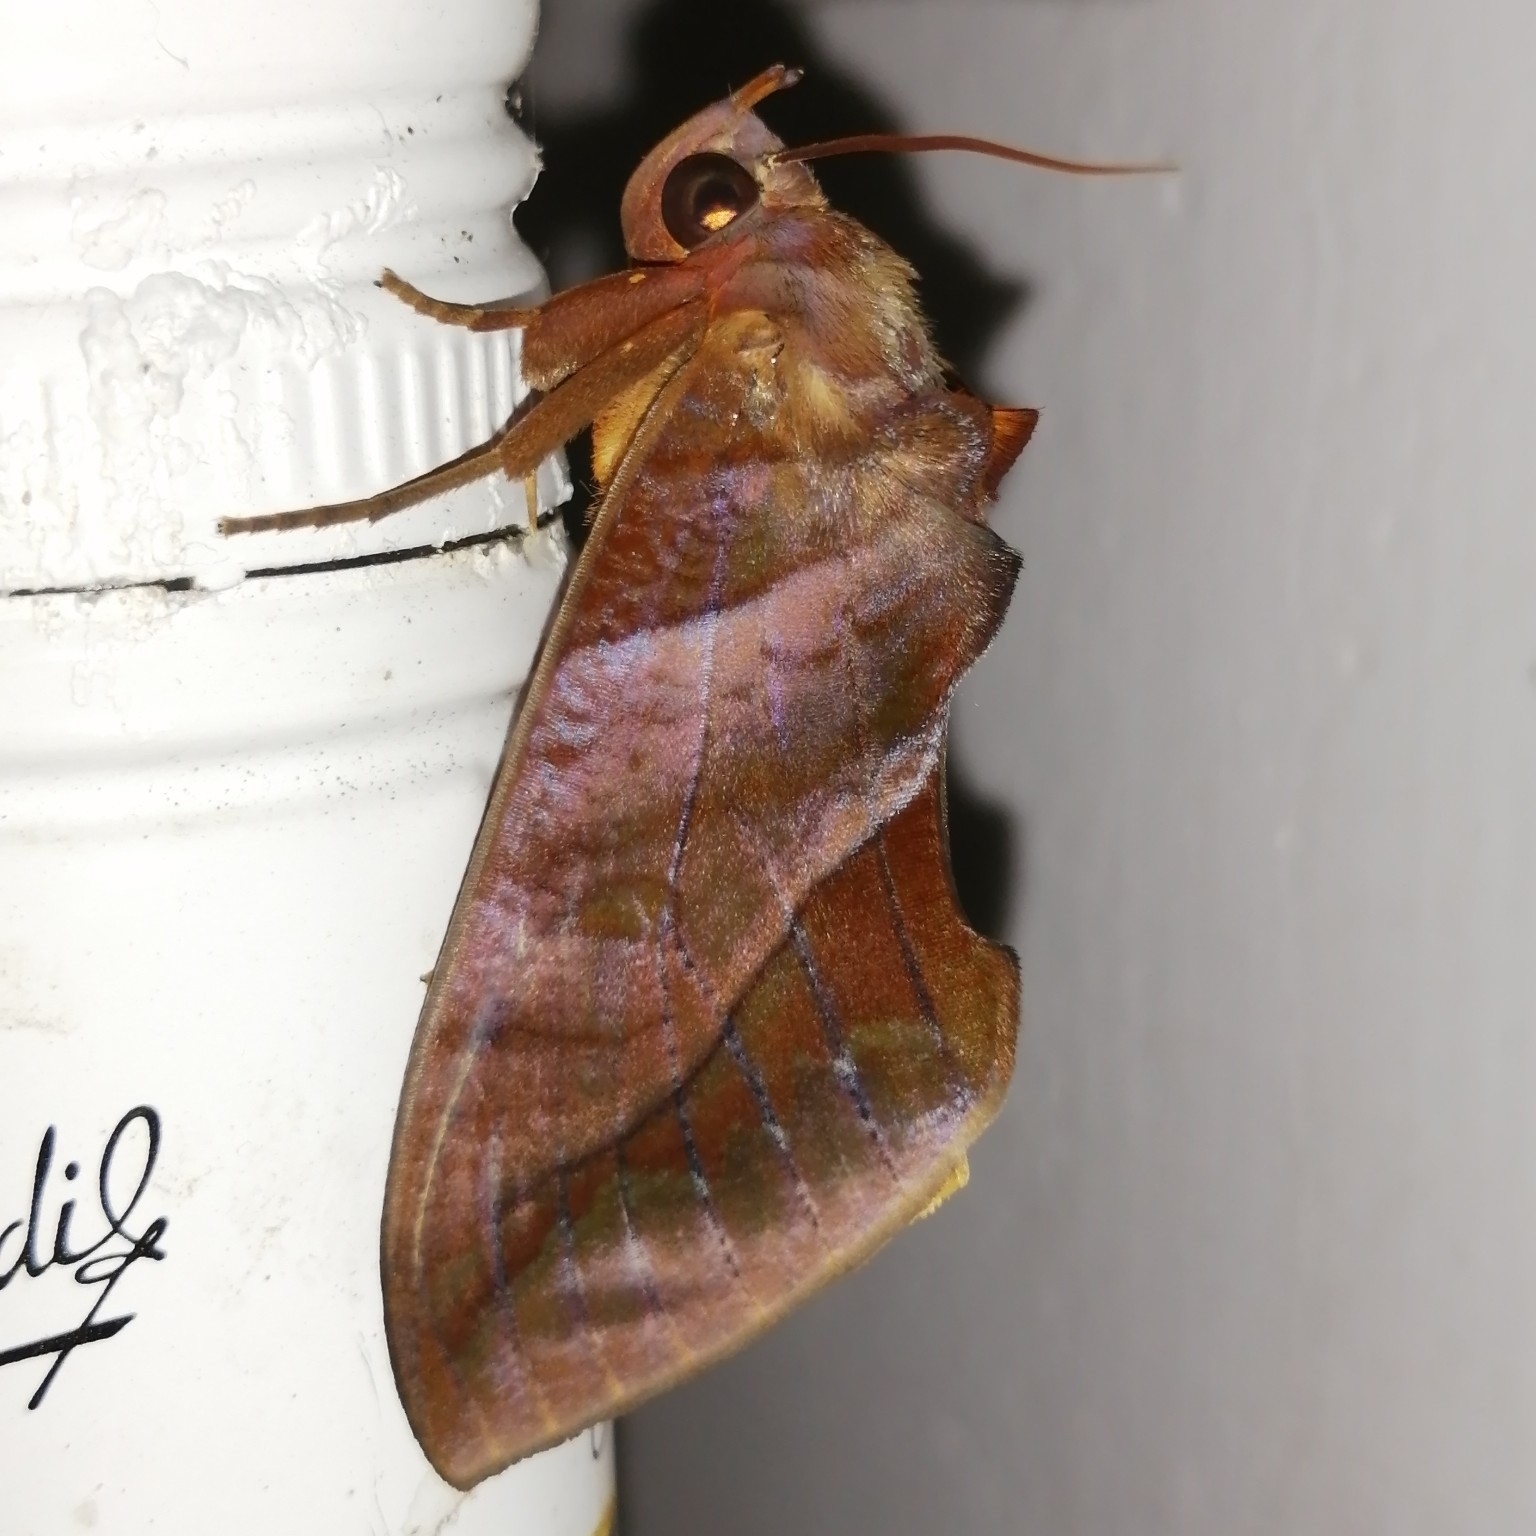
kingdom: Animalia
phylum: Arthropoda
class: Insecta
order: Lepidoptera
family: Erebidae
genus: Eudocima
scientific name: Eudocima homaena
